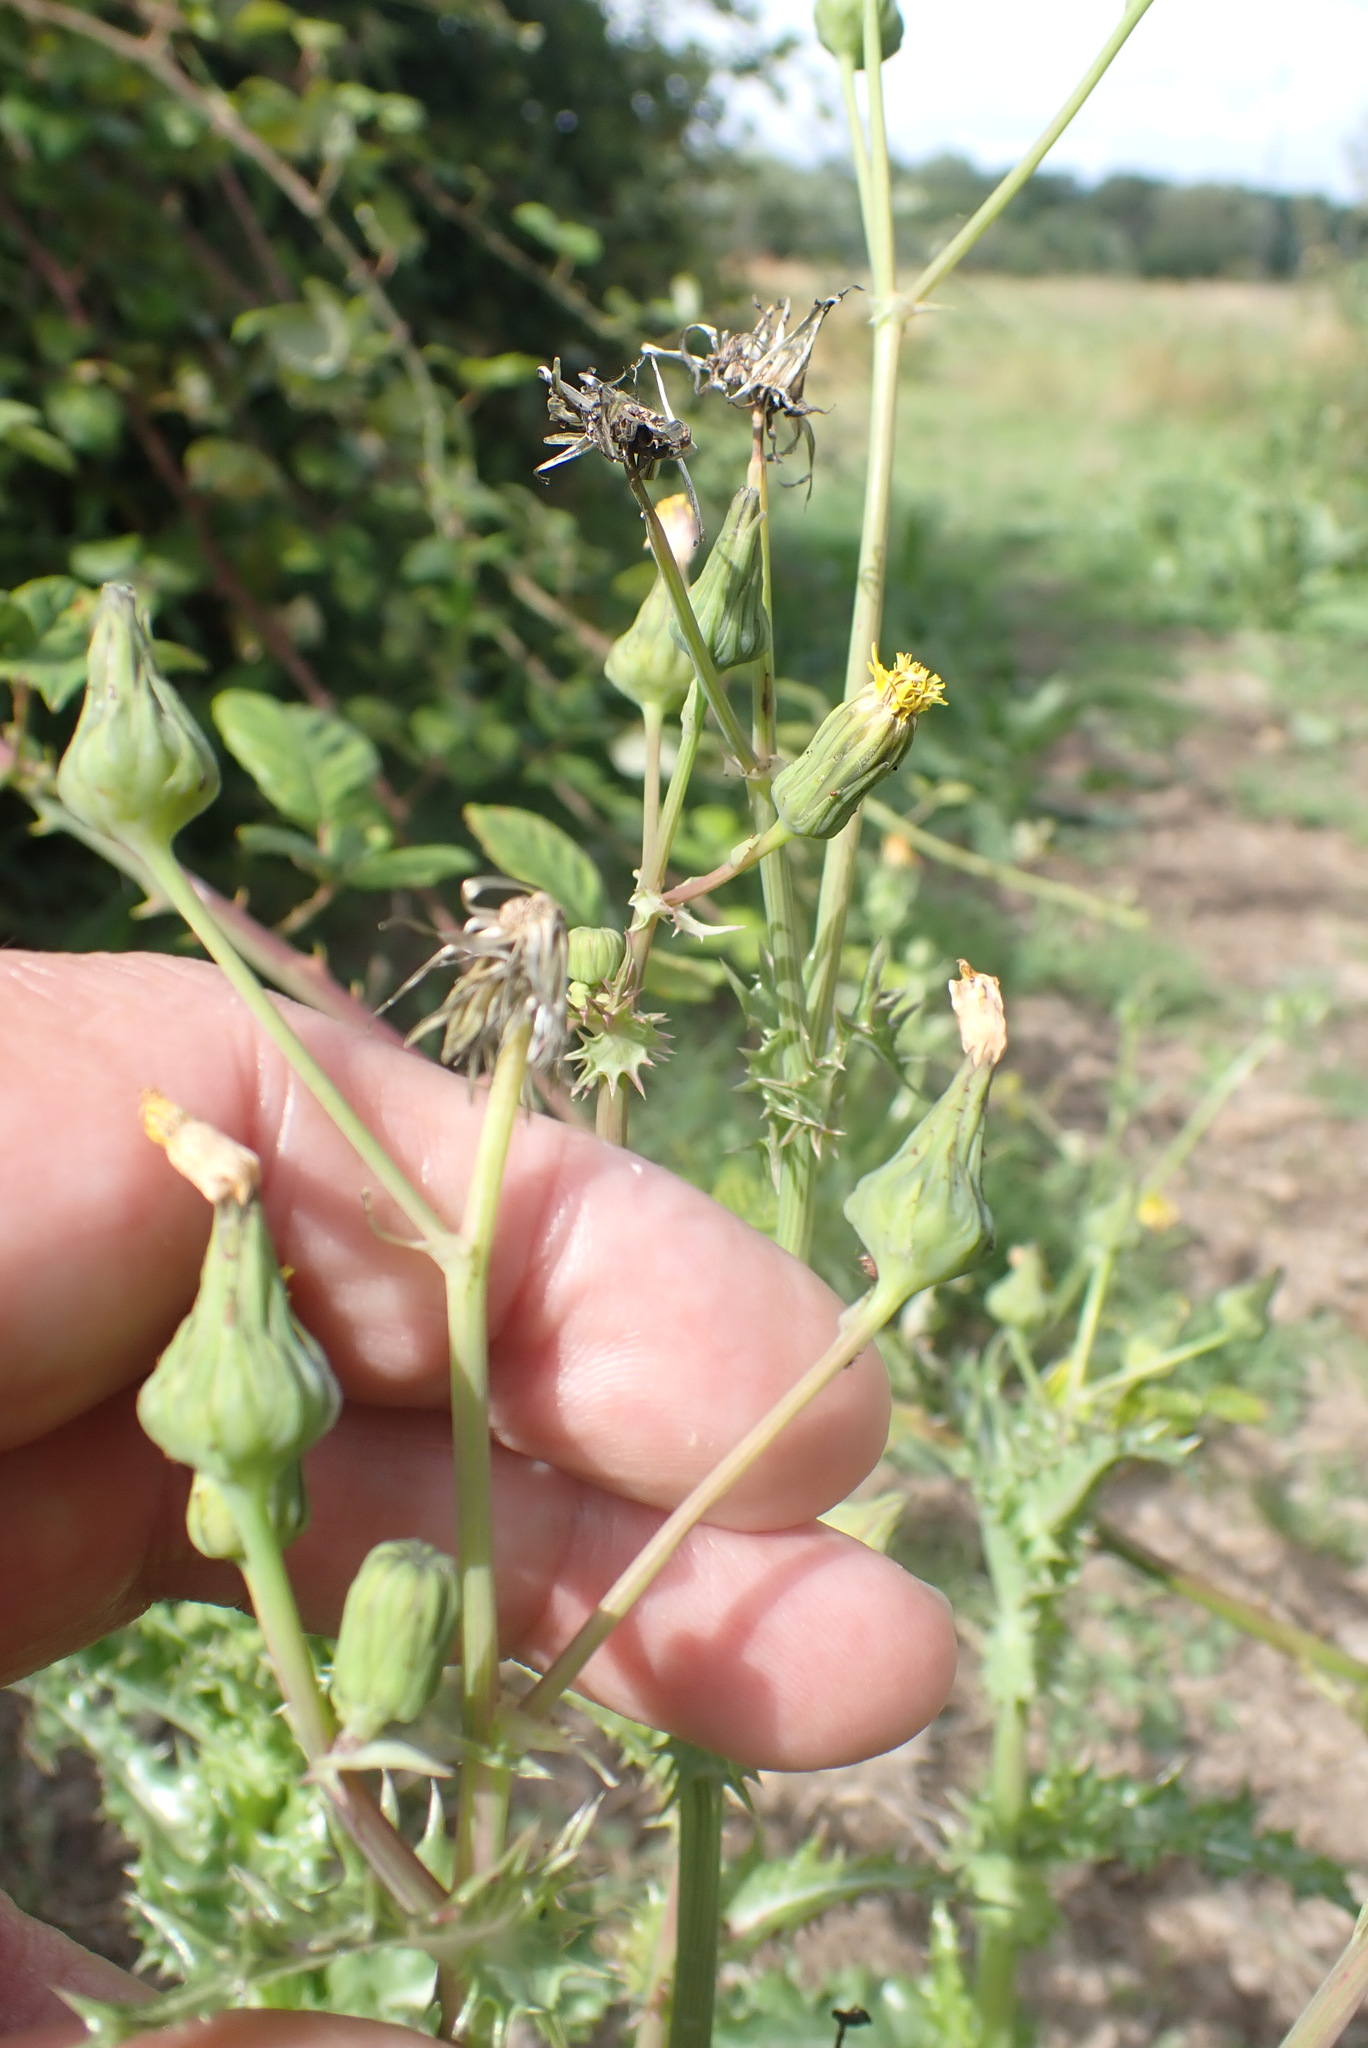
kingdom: Plantae
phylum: Tracheophyta
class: Magnoliopsida
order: Asterales
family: Asteraceae
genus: Sonchus
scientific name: Sonchus asper
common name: Prickly sow-thistle
